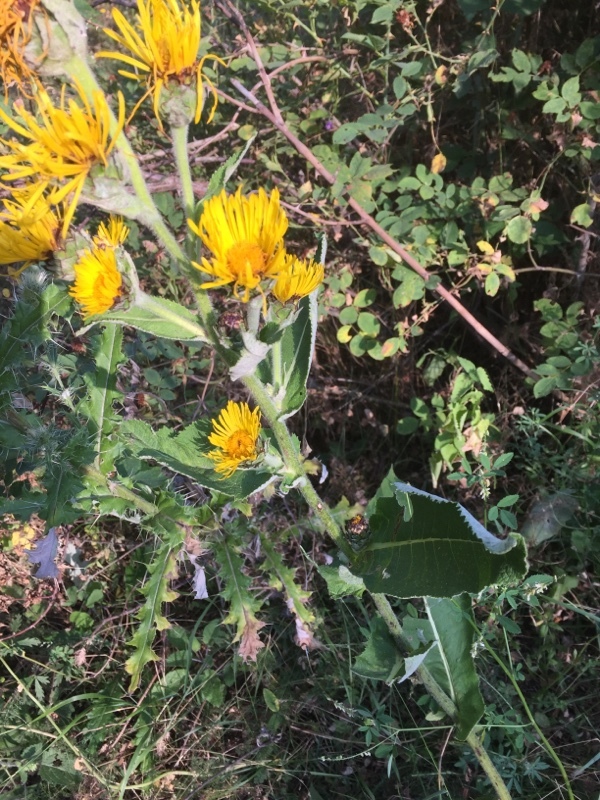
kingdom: Plantae
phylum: Tracheophyta
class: Magnoliopsida
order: Asterales
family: Asteraceae
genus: Inula
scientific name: Inula helenium
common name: Elecampane
